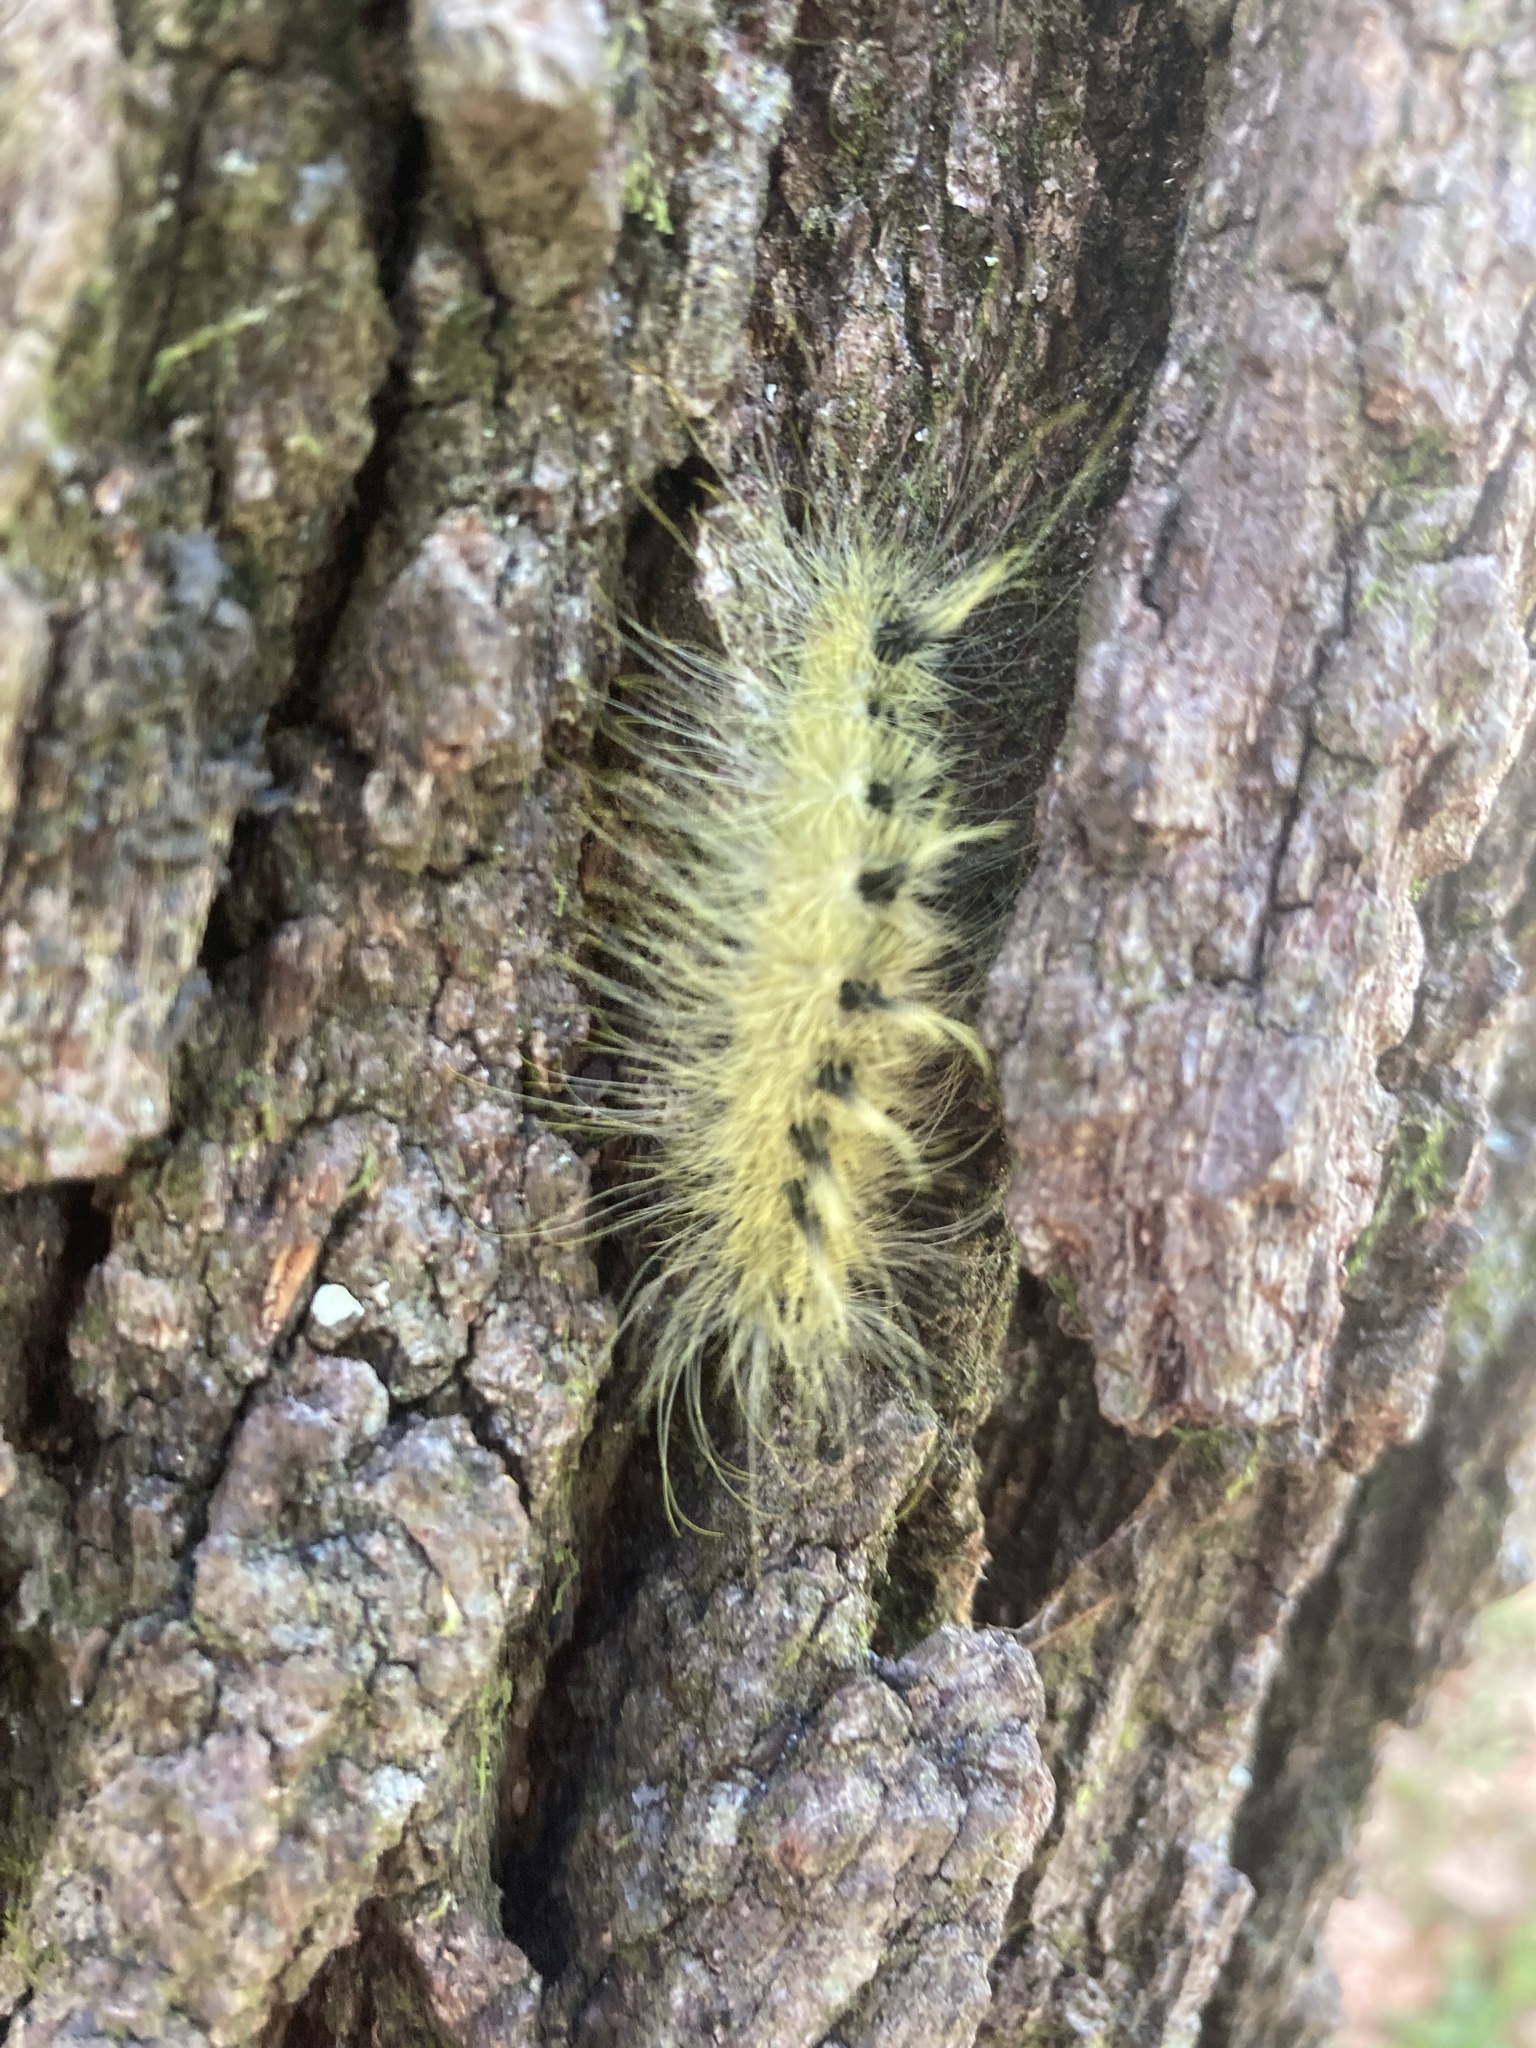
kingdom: Animalia
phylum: Arthropoda
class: Insecta
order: Lepidoptera
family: Noctuidae
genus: Acronicta
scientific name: Acronicta rubricoma
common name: Hackberry dagger
